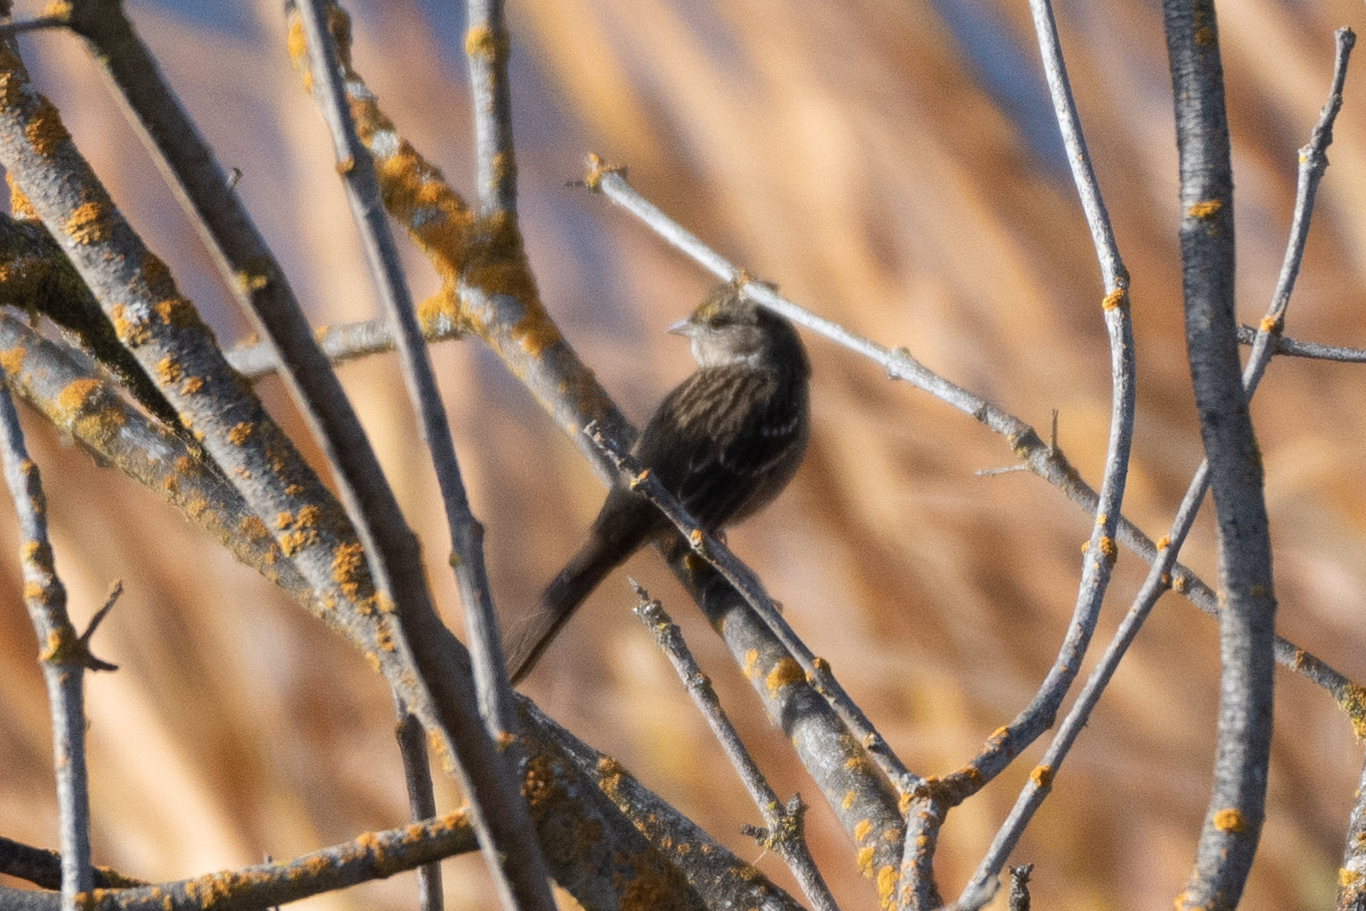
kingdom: Animalia
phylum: Chordata
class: Aves
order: Passeriformes
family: Passerellidae
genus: Zonotrichia
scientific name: Zonotrichia atricapilla
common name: Golden-crowned sparrow
